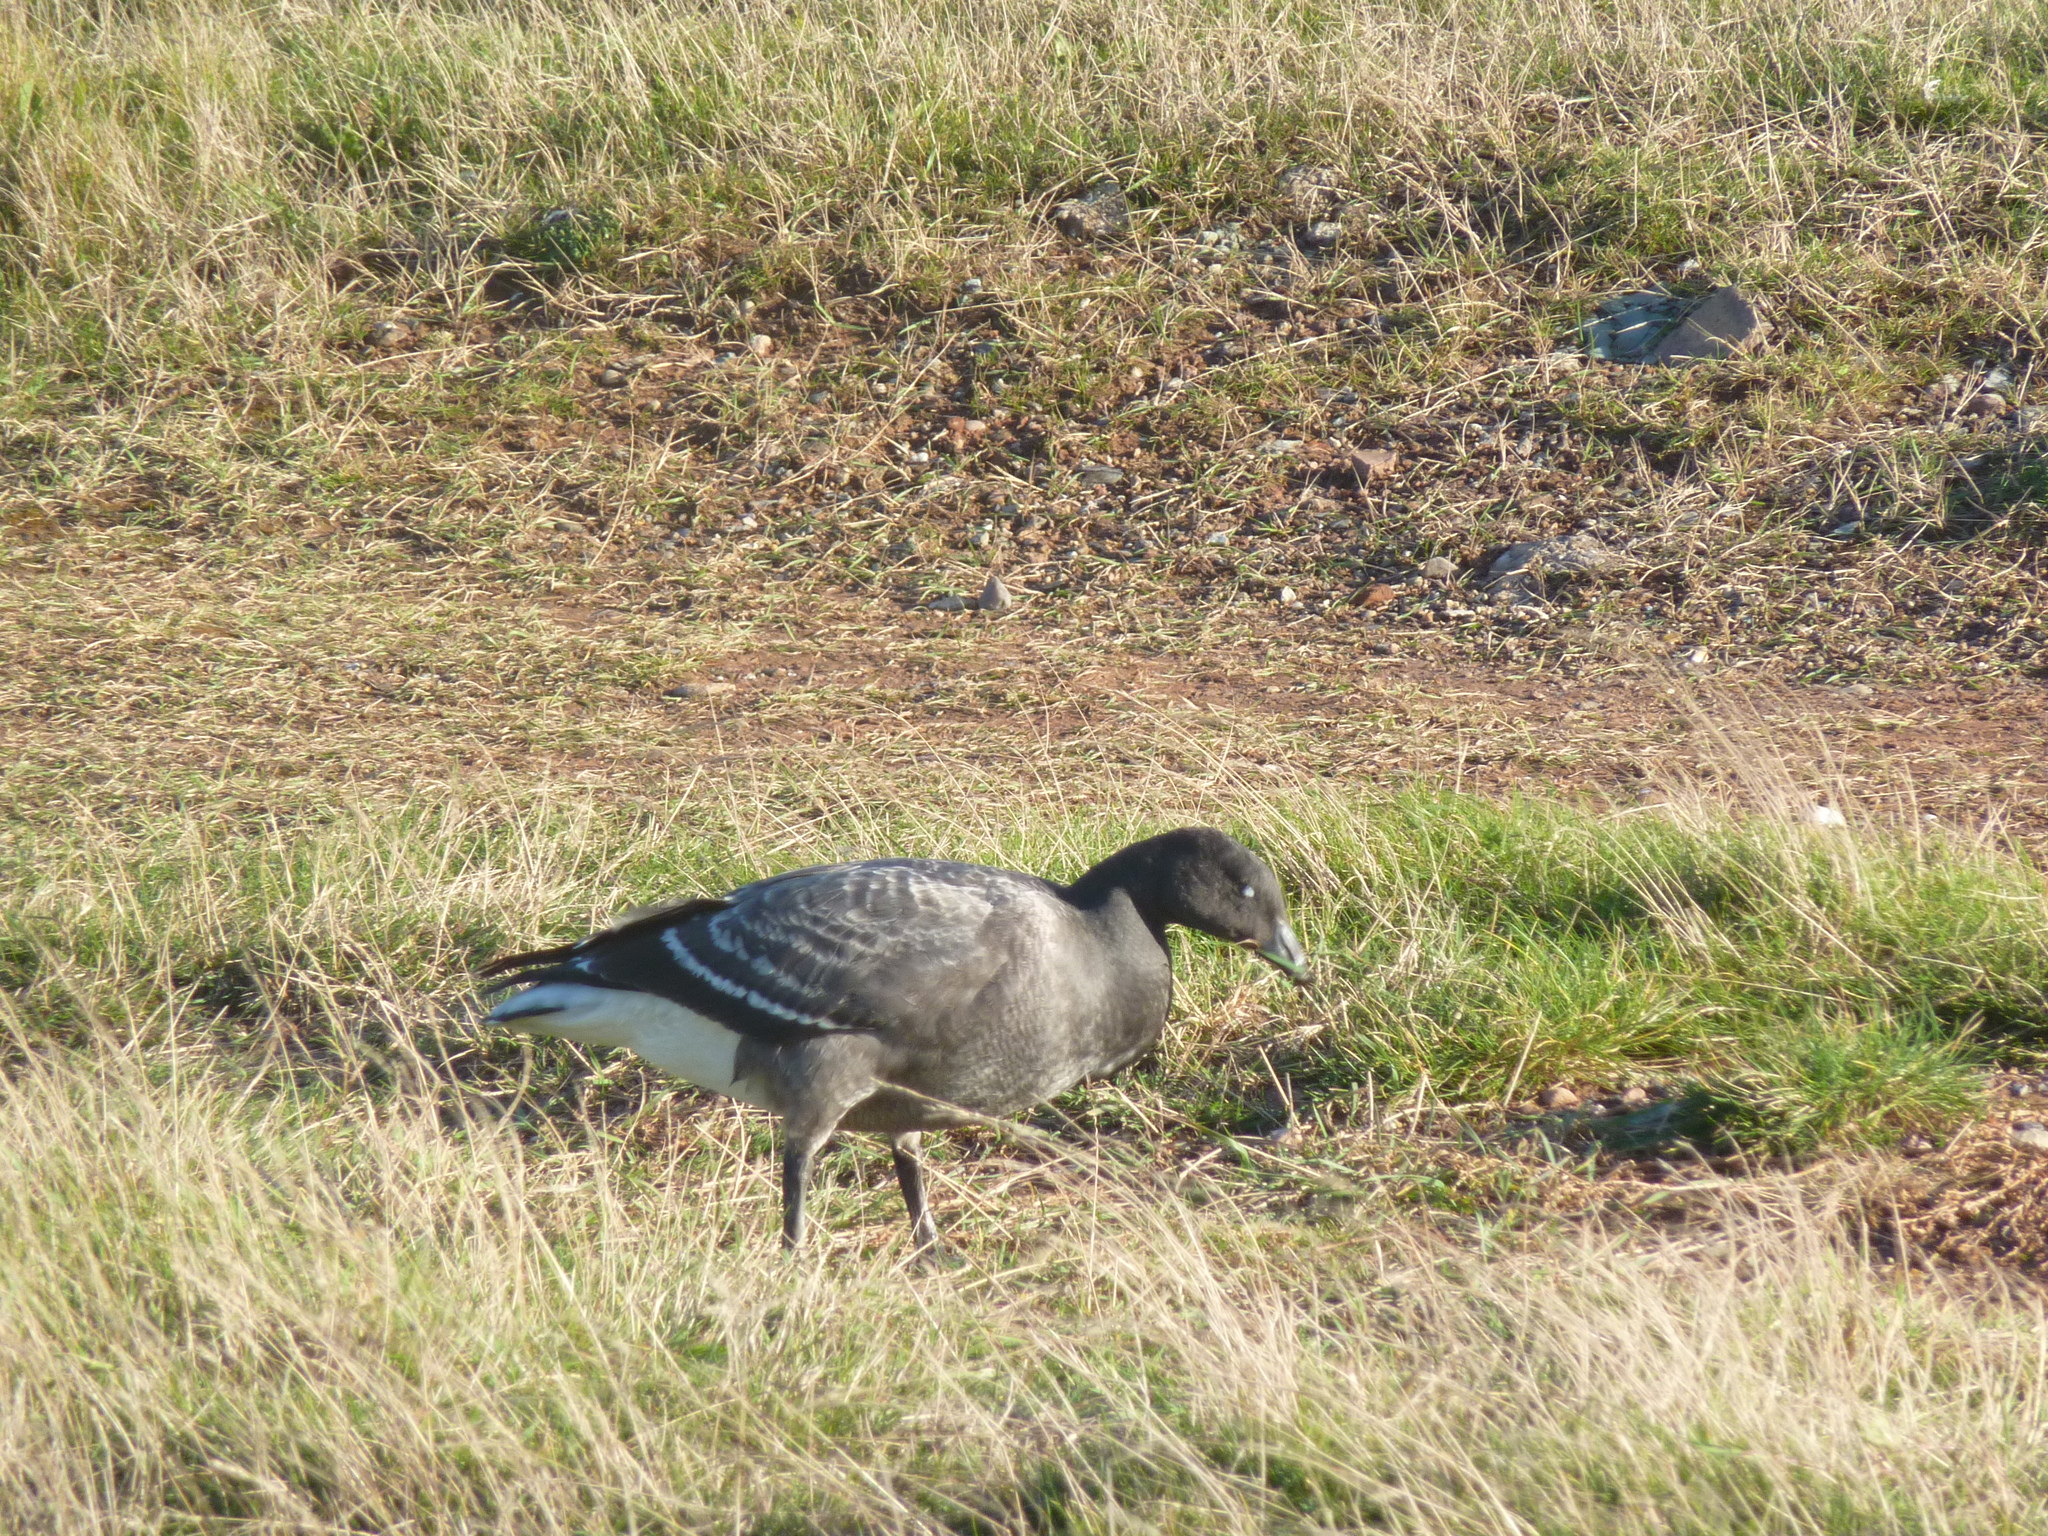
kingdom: Animalia
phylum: Chordata
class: Aves
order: Anseriformes
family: Anatidae
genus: Branta
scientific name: Branta bernicla
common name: Brant goose
